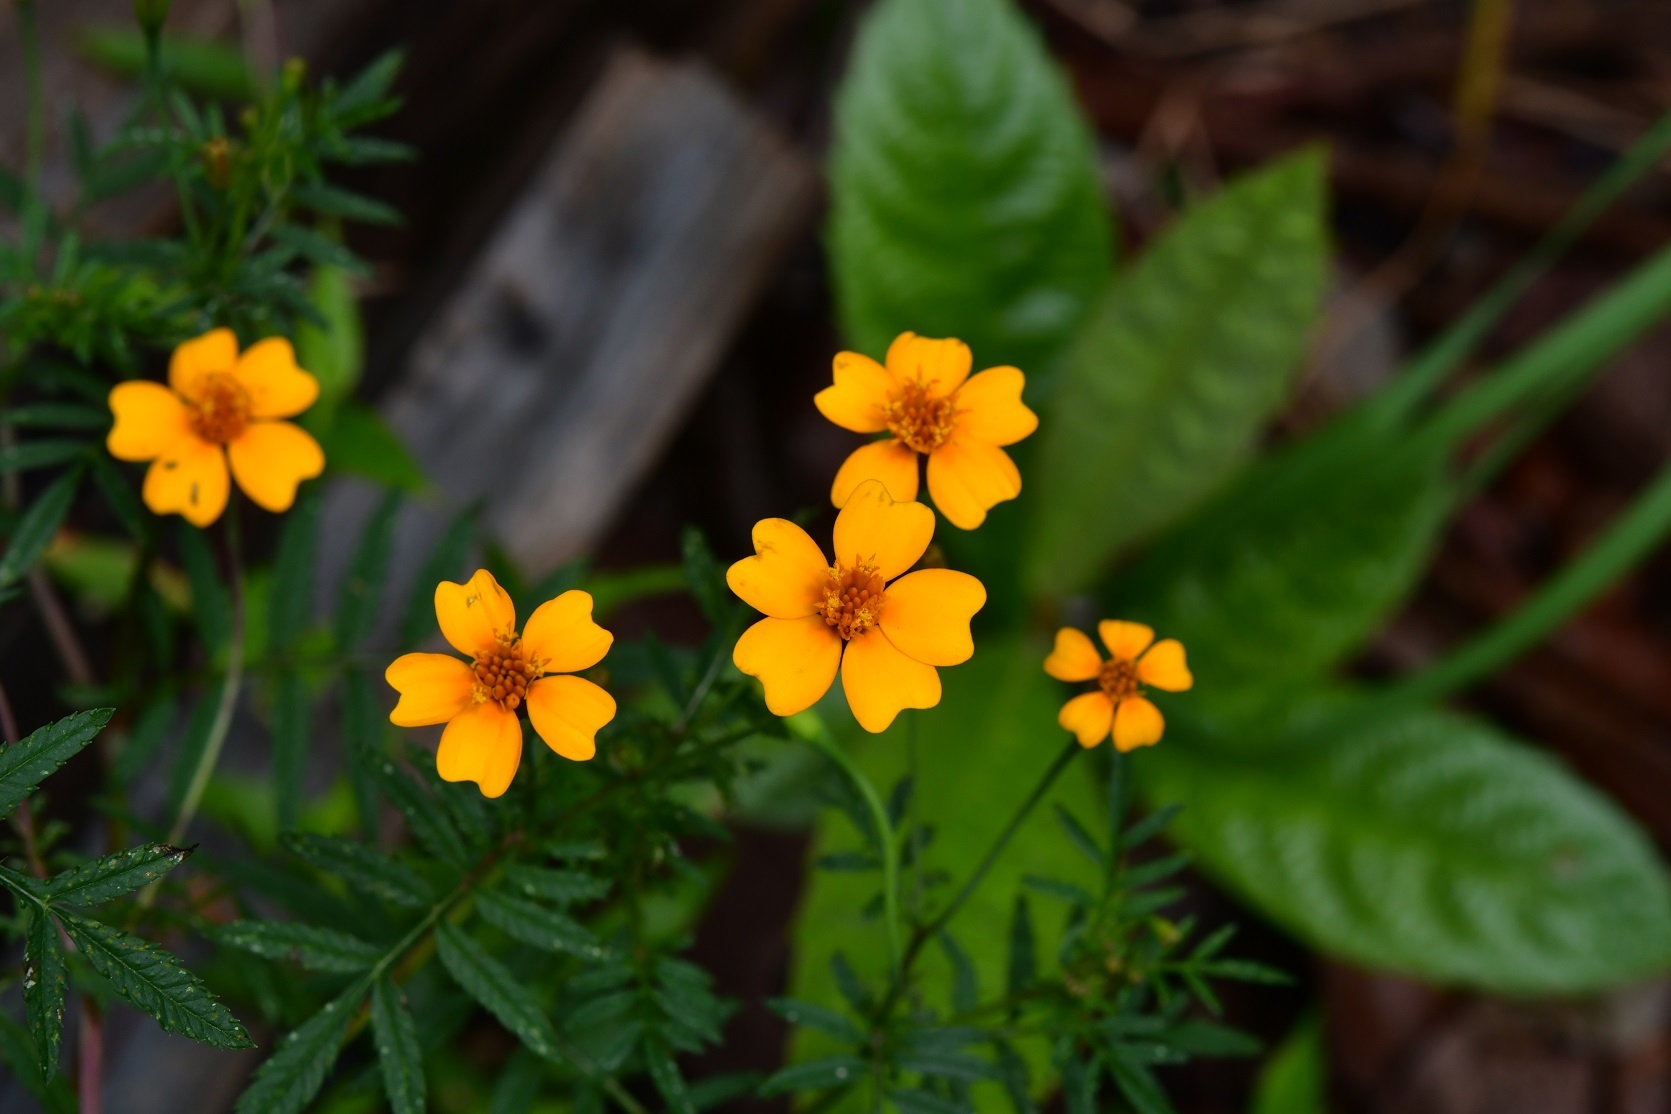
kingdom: Plantae
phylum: Tracheophyta
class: Magnoliopsida
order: Asterales
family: Asteraceae
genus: Tagetes
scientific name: Tagetes tenuifolia
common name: Signet marigold
